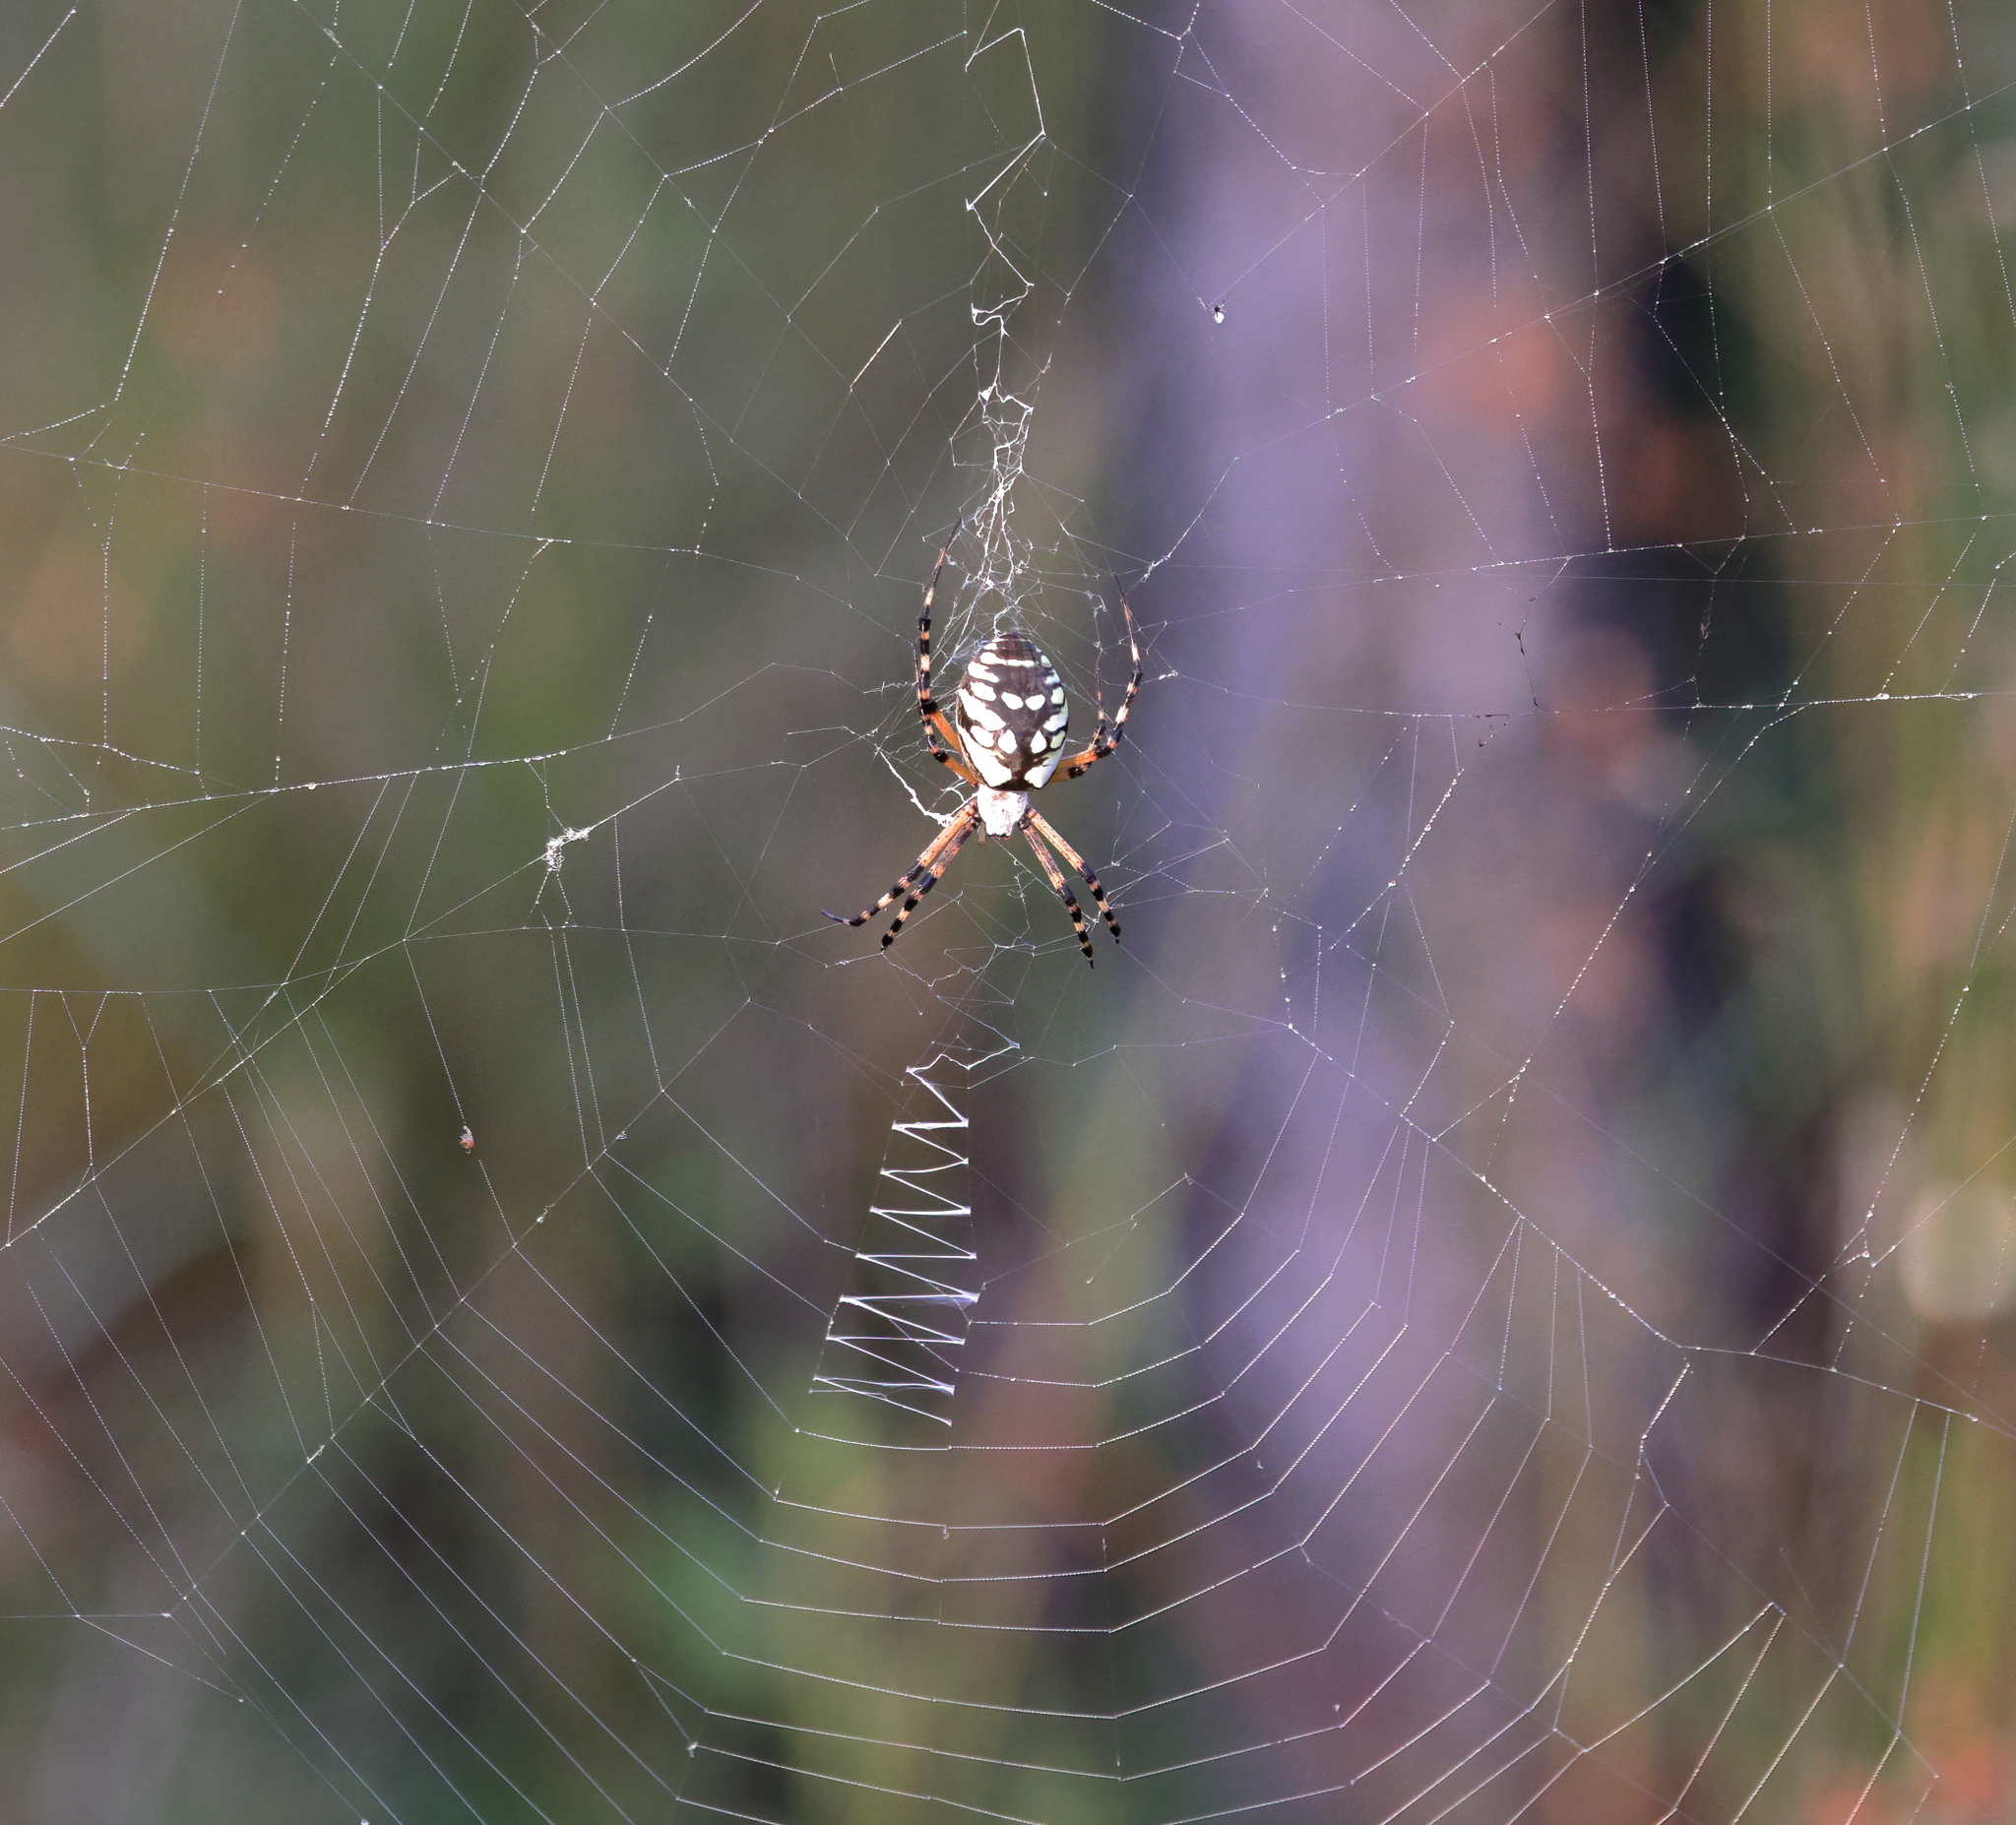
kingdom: Animalia
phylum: Arthropoda
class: Arachnida
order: Araneae
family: Araneidae
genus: Argiope
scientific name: Argiope aurantia
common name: Orb weavers
